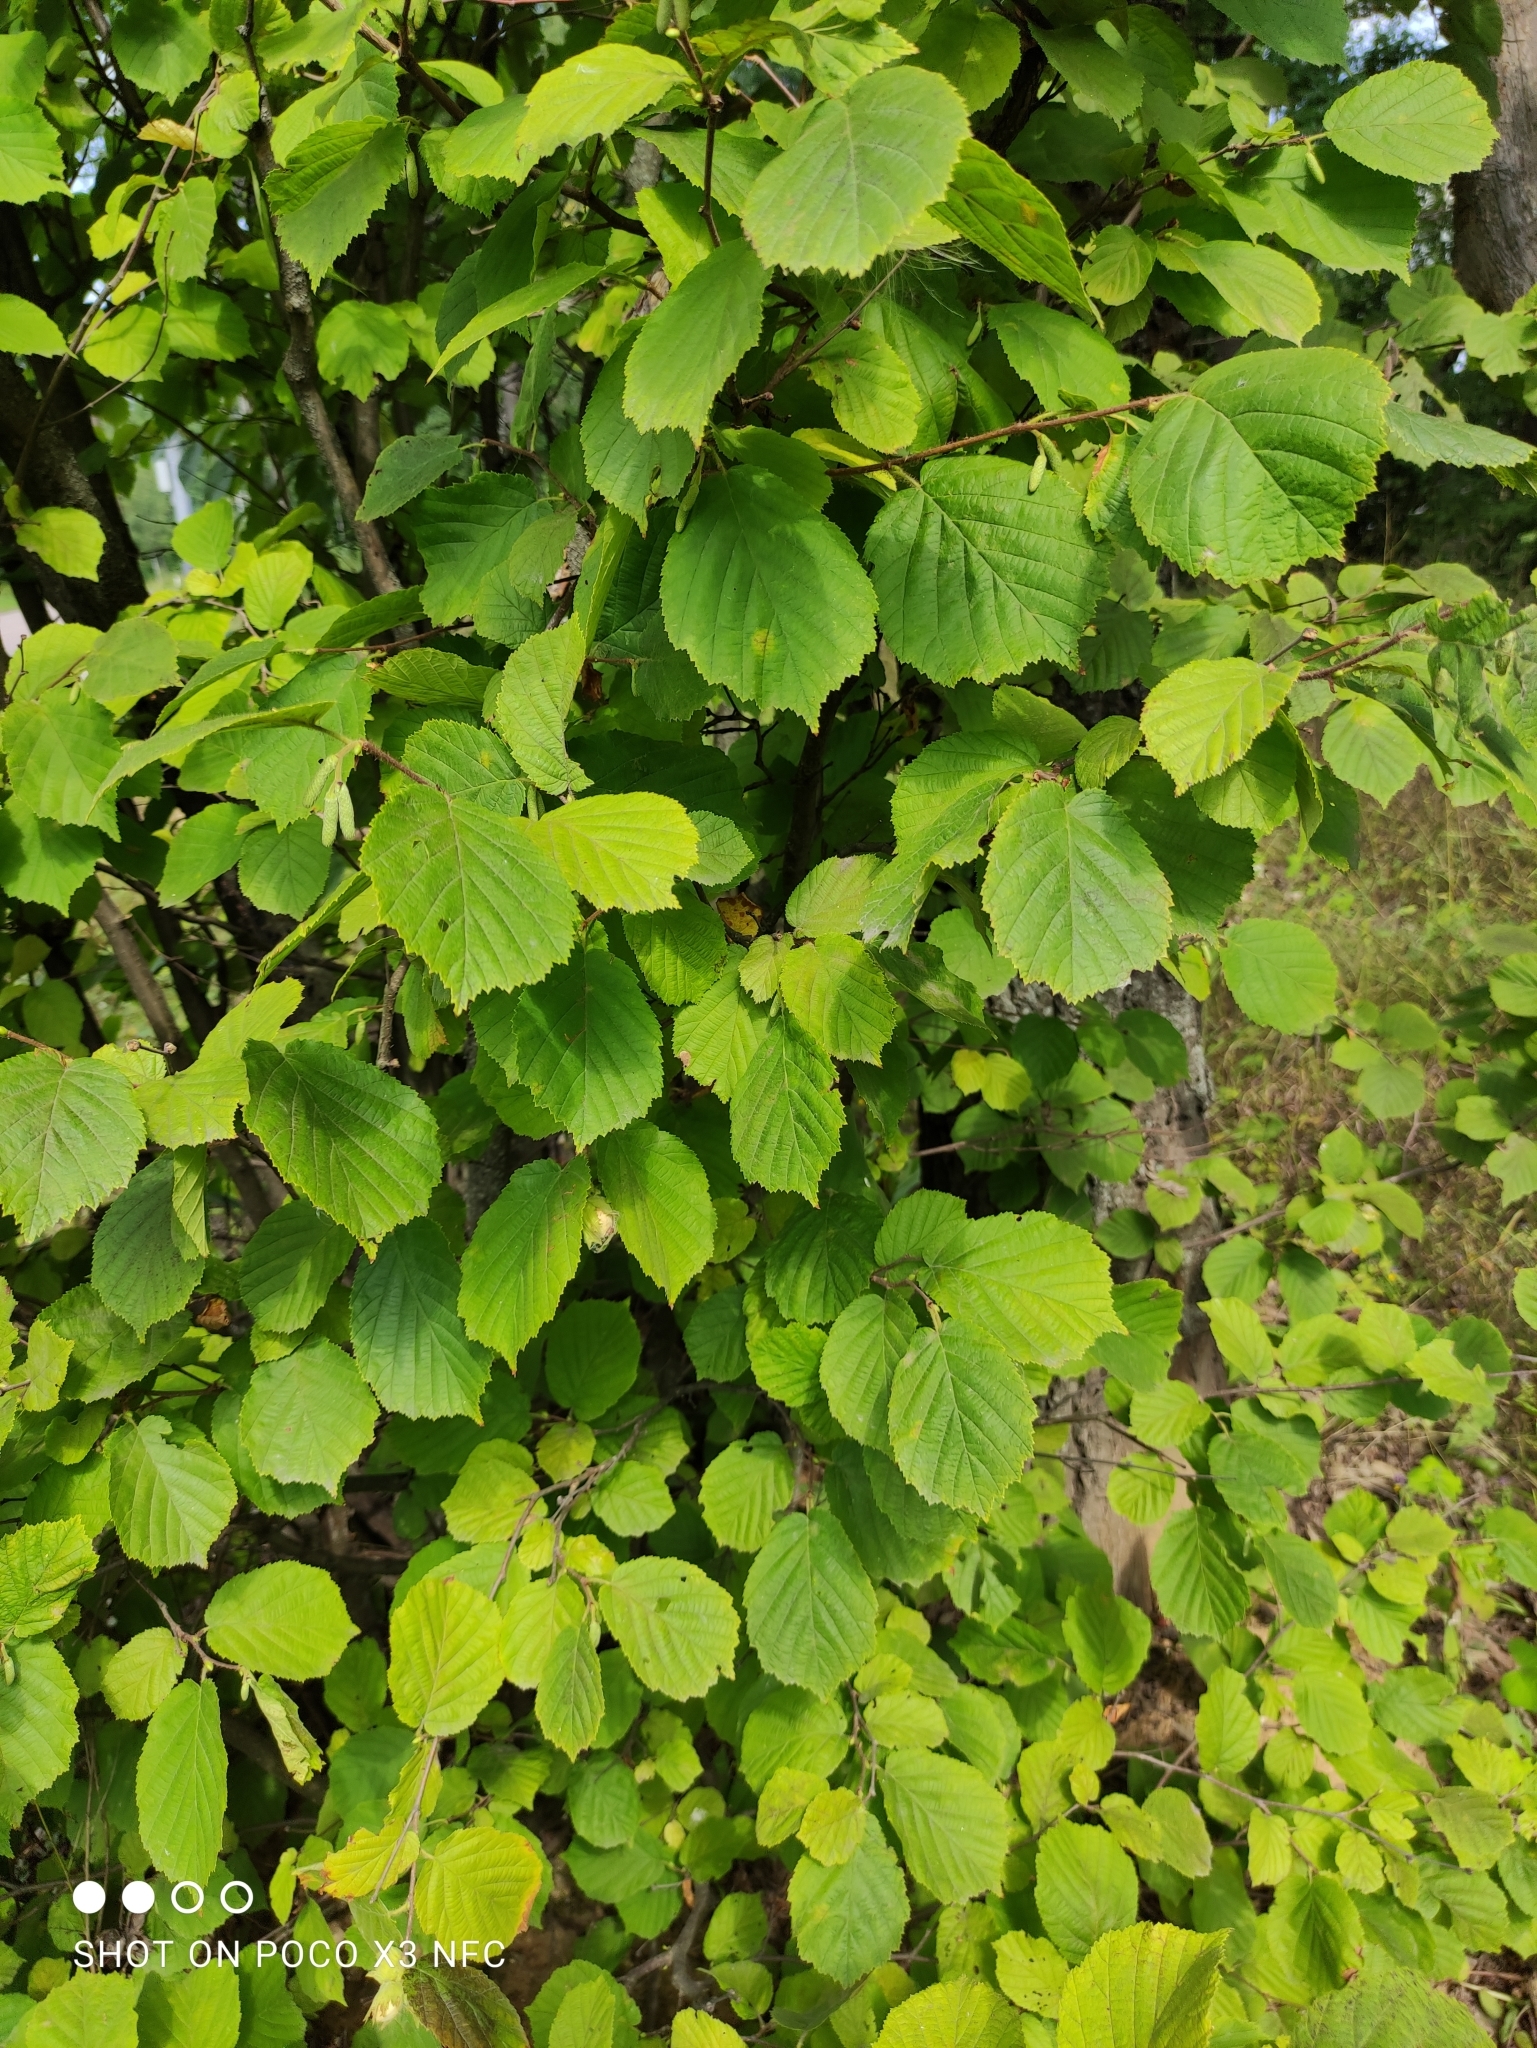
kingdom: Plantae
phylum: Tracheophyta
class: Magnoliopsida
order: Fagales
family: Betulaceae
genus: Corylus
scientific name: Corylus avellana
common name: European hazel
